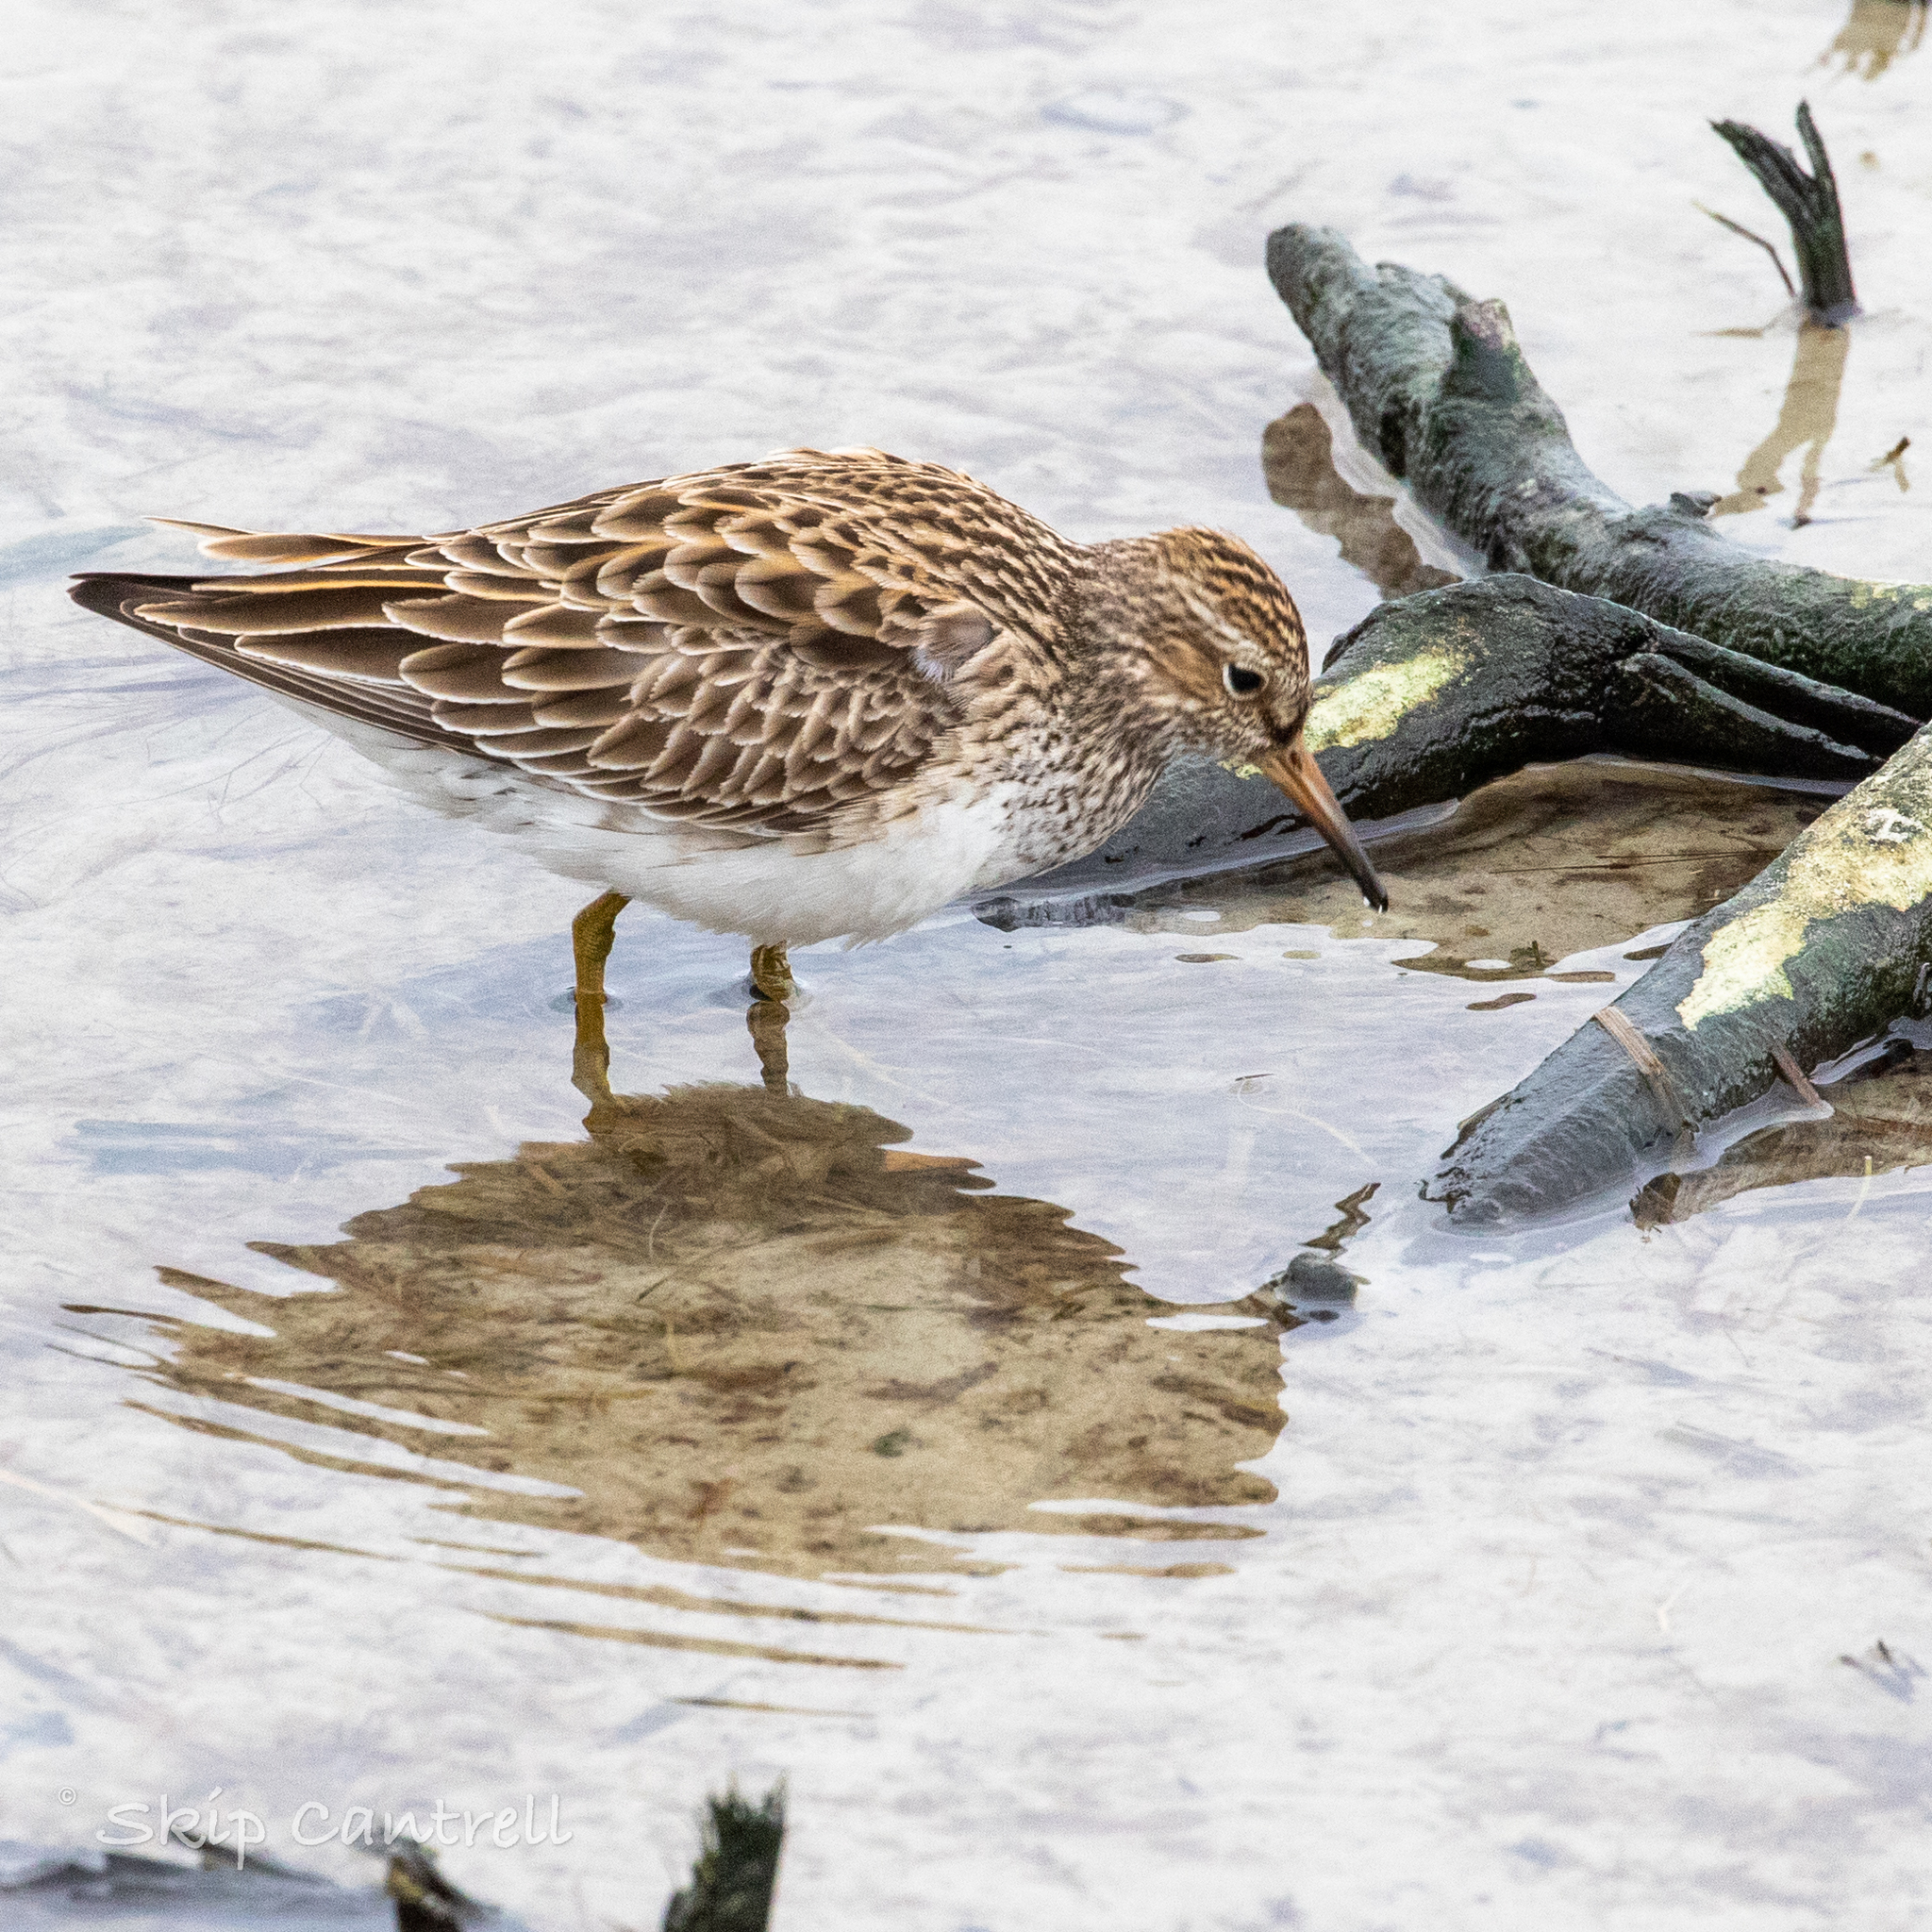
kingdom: Animalia
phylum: Chordata
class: Aves
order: Charadriiformes
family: Scolopacidae
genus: Calidris
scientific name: Calidris melanotos
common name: Pectoral sandpiper
